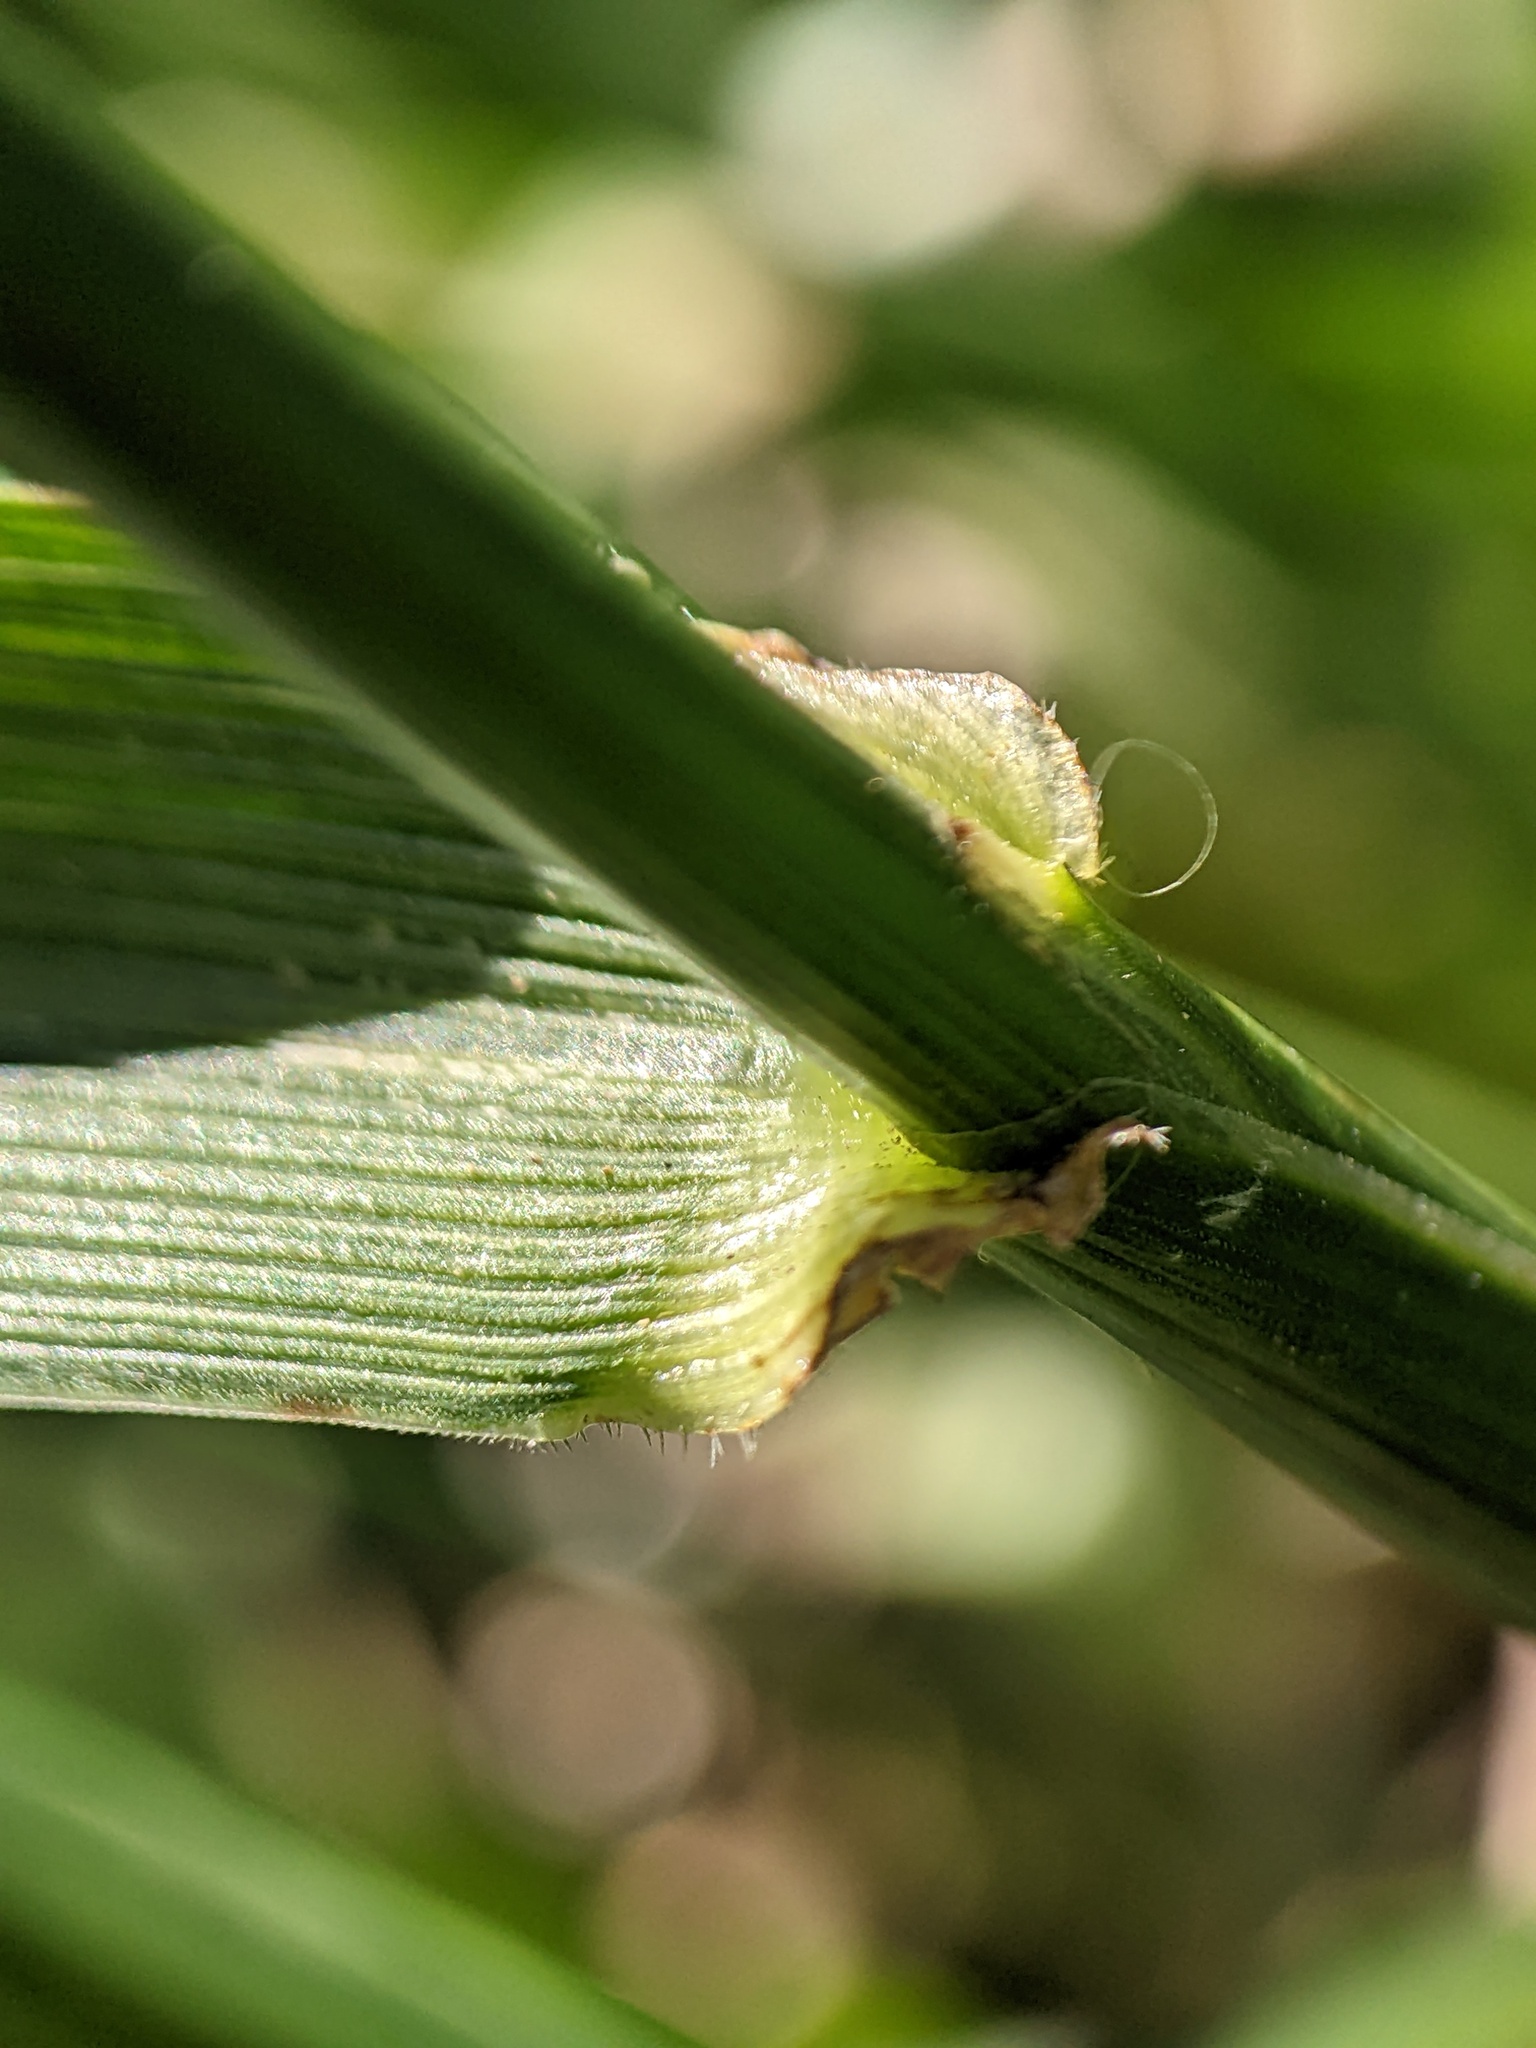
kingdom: Plantae
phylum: Tracheophyta
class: Liliopsida
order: Poales
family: Poaceae
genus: Lolium
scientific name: Lolium arundinaceum
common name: Reed fescue
